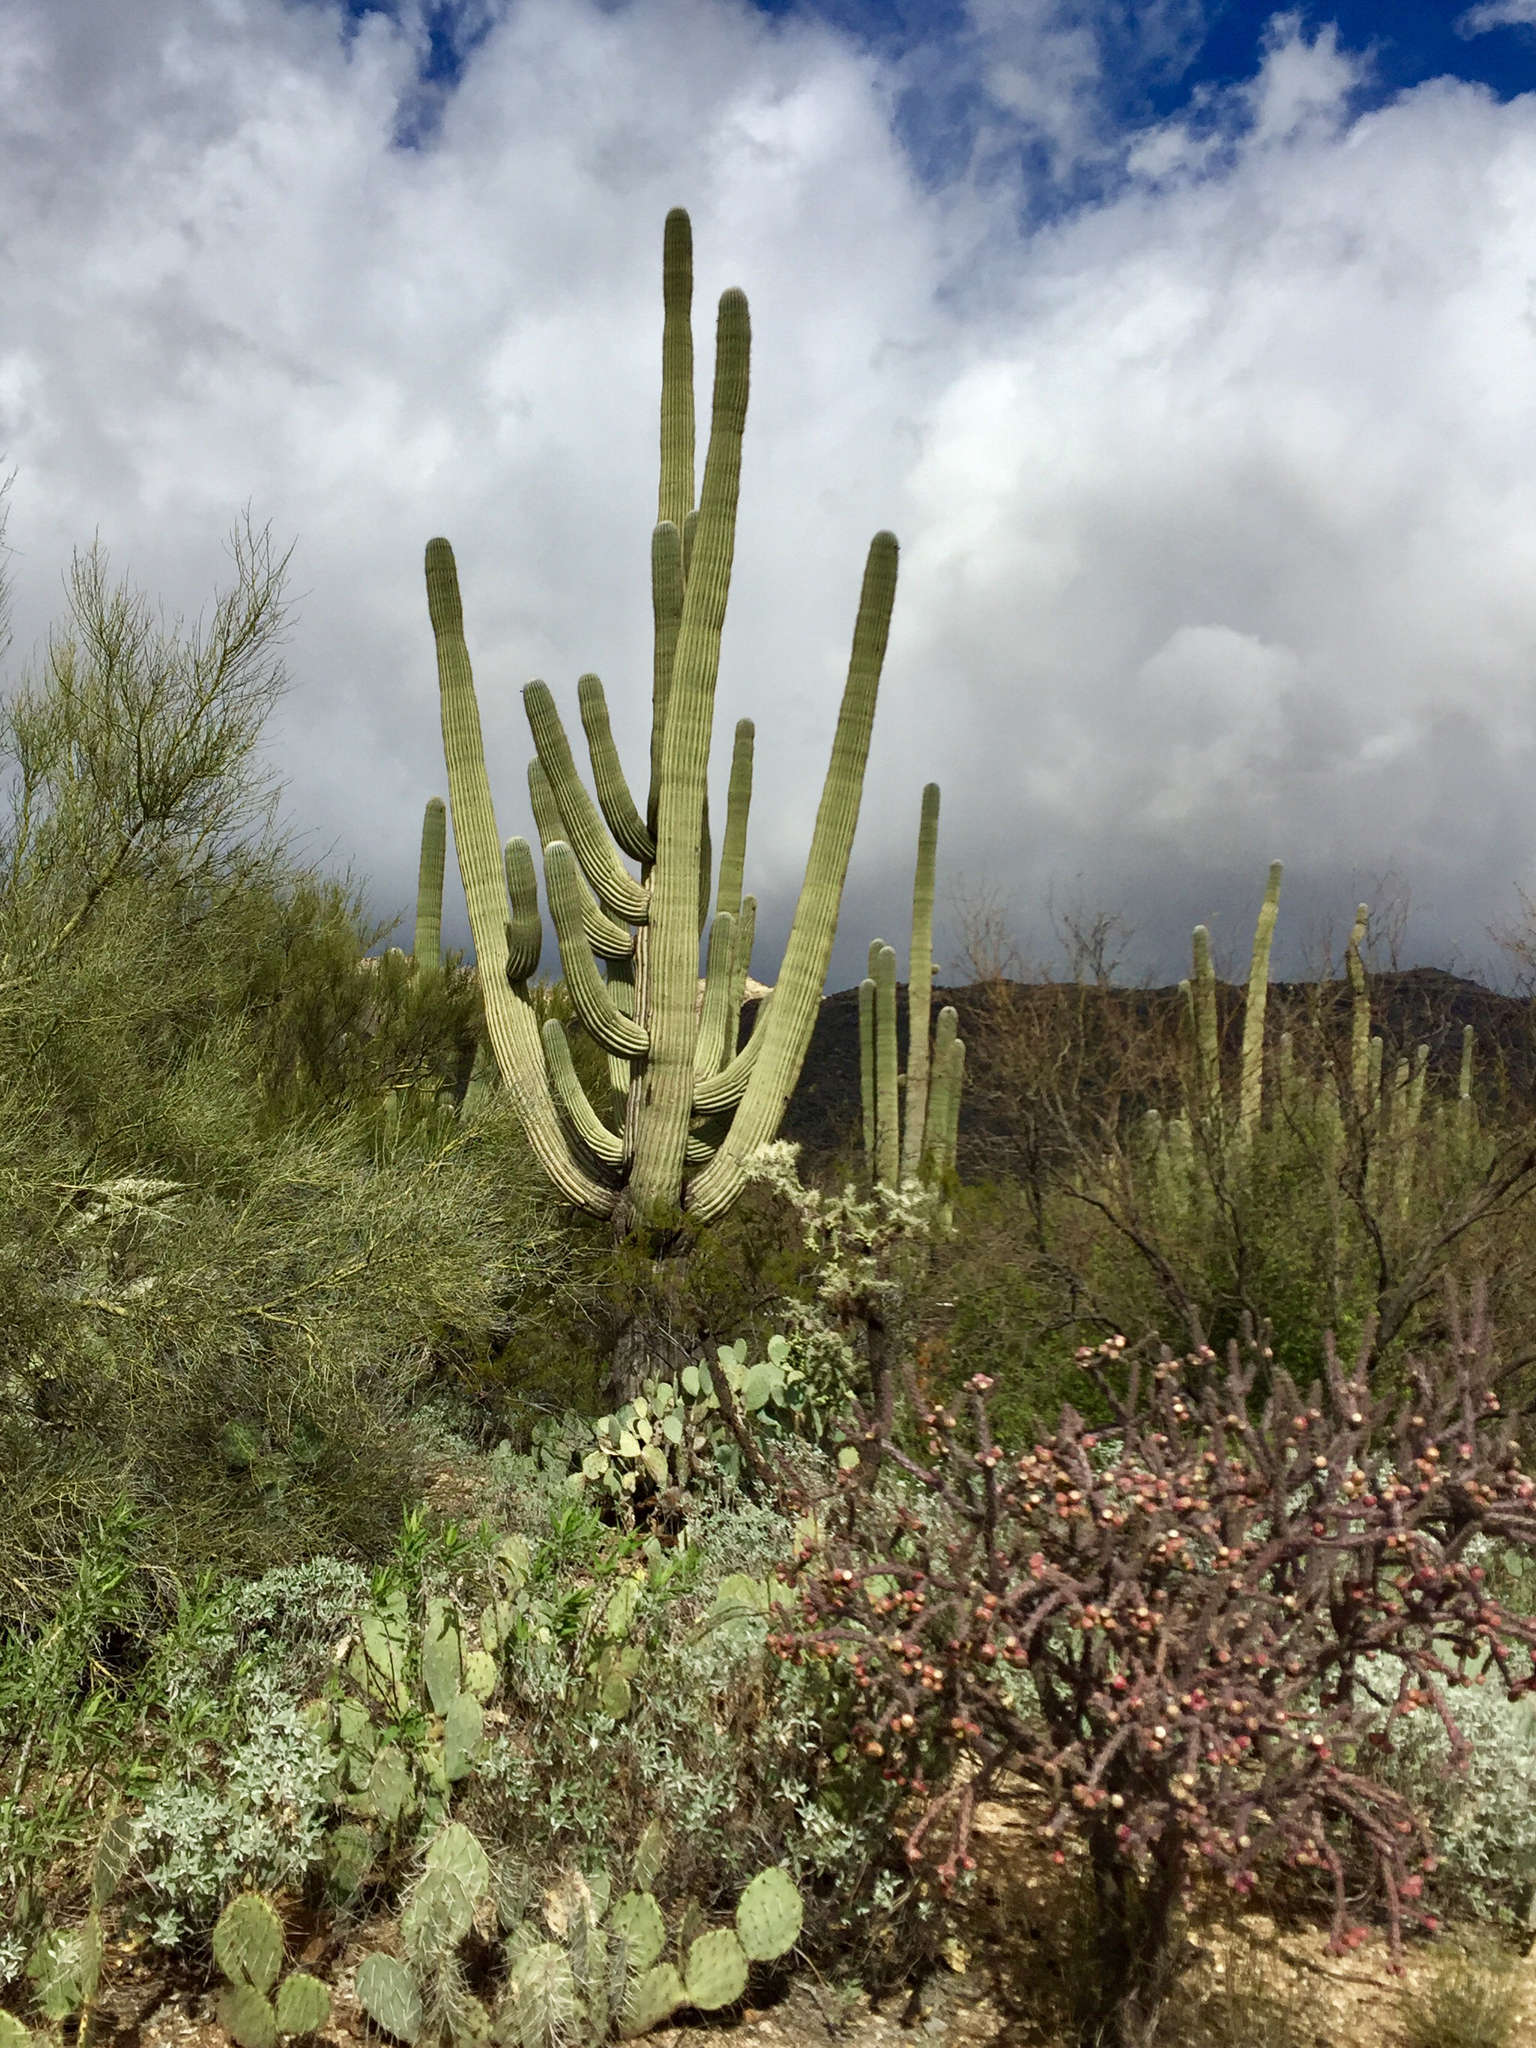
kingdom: Plantae
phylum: Tracheophyta
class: Magnoliopsida
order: Caryophyllales
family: Cactaceae
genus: Carnegiea
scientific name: Carnegiea gigantea
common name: Saguaro
